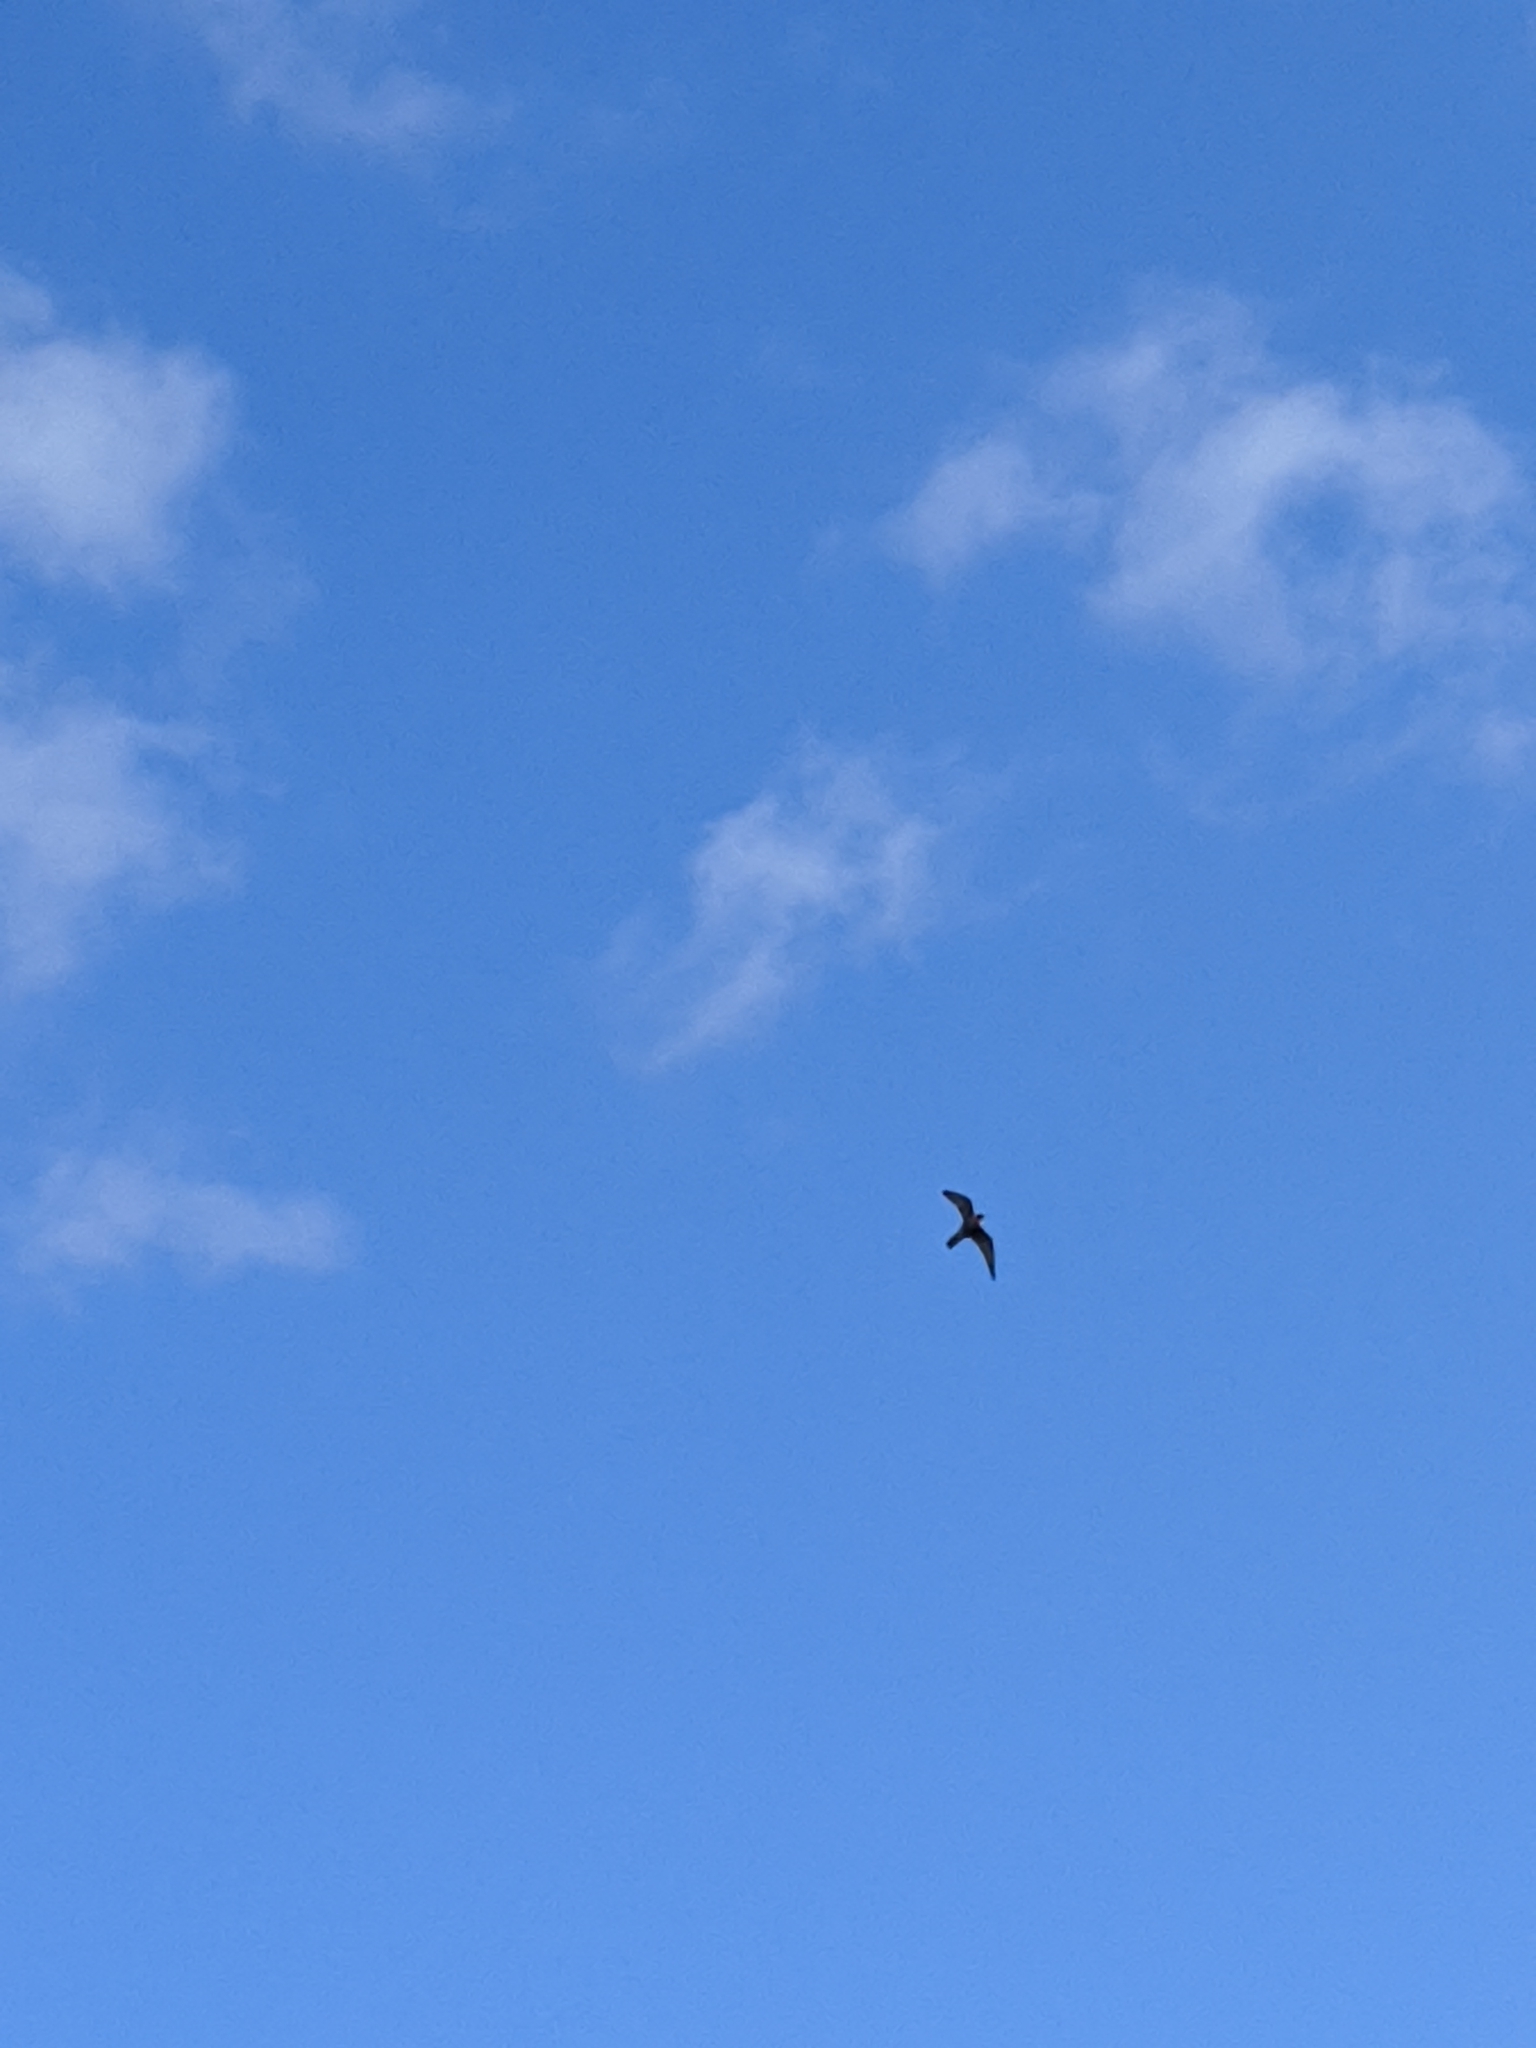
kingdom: Animalia
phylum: Chordata
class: Aves
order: Falconiformes
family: Falconidae
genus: Falco
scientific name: Falco peregrinus
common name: Peregrine falcon
